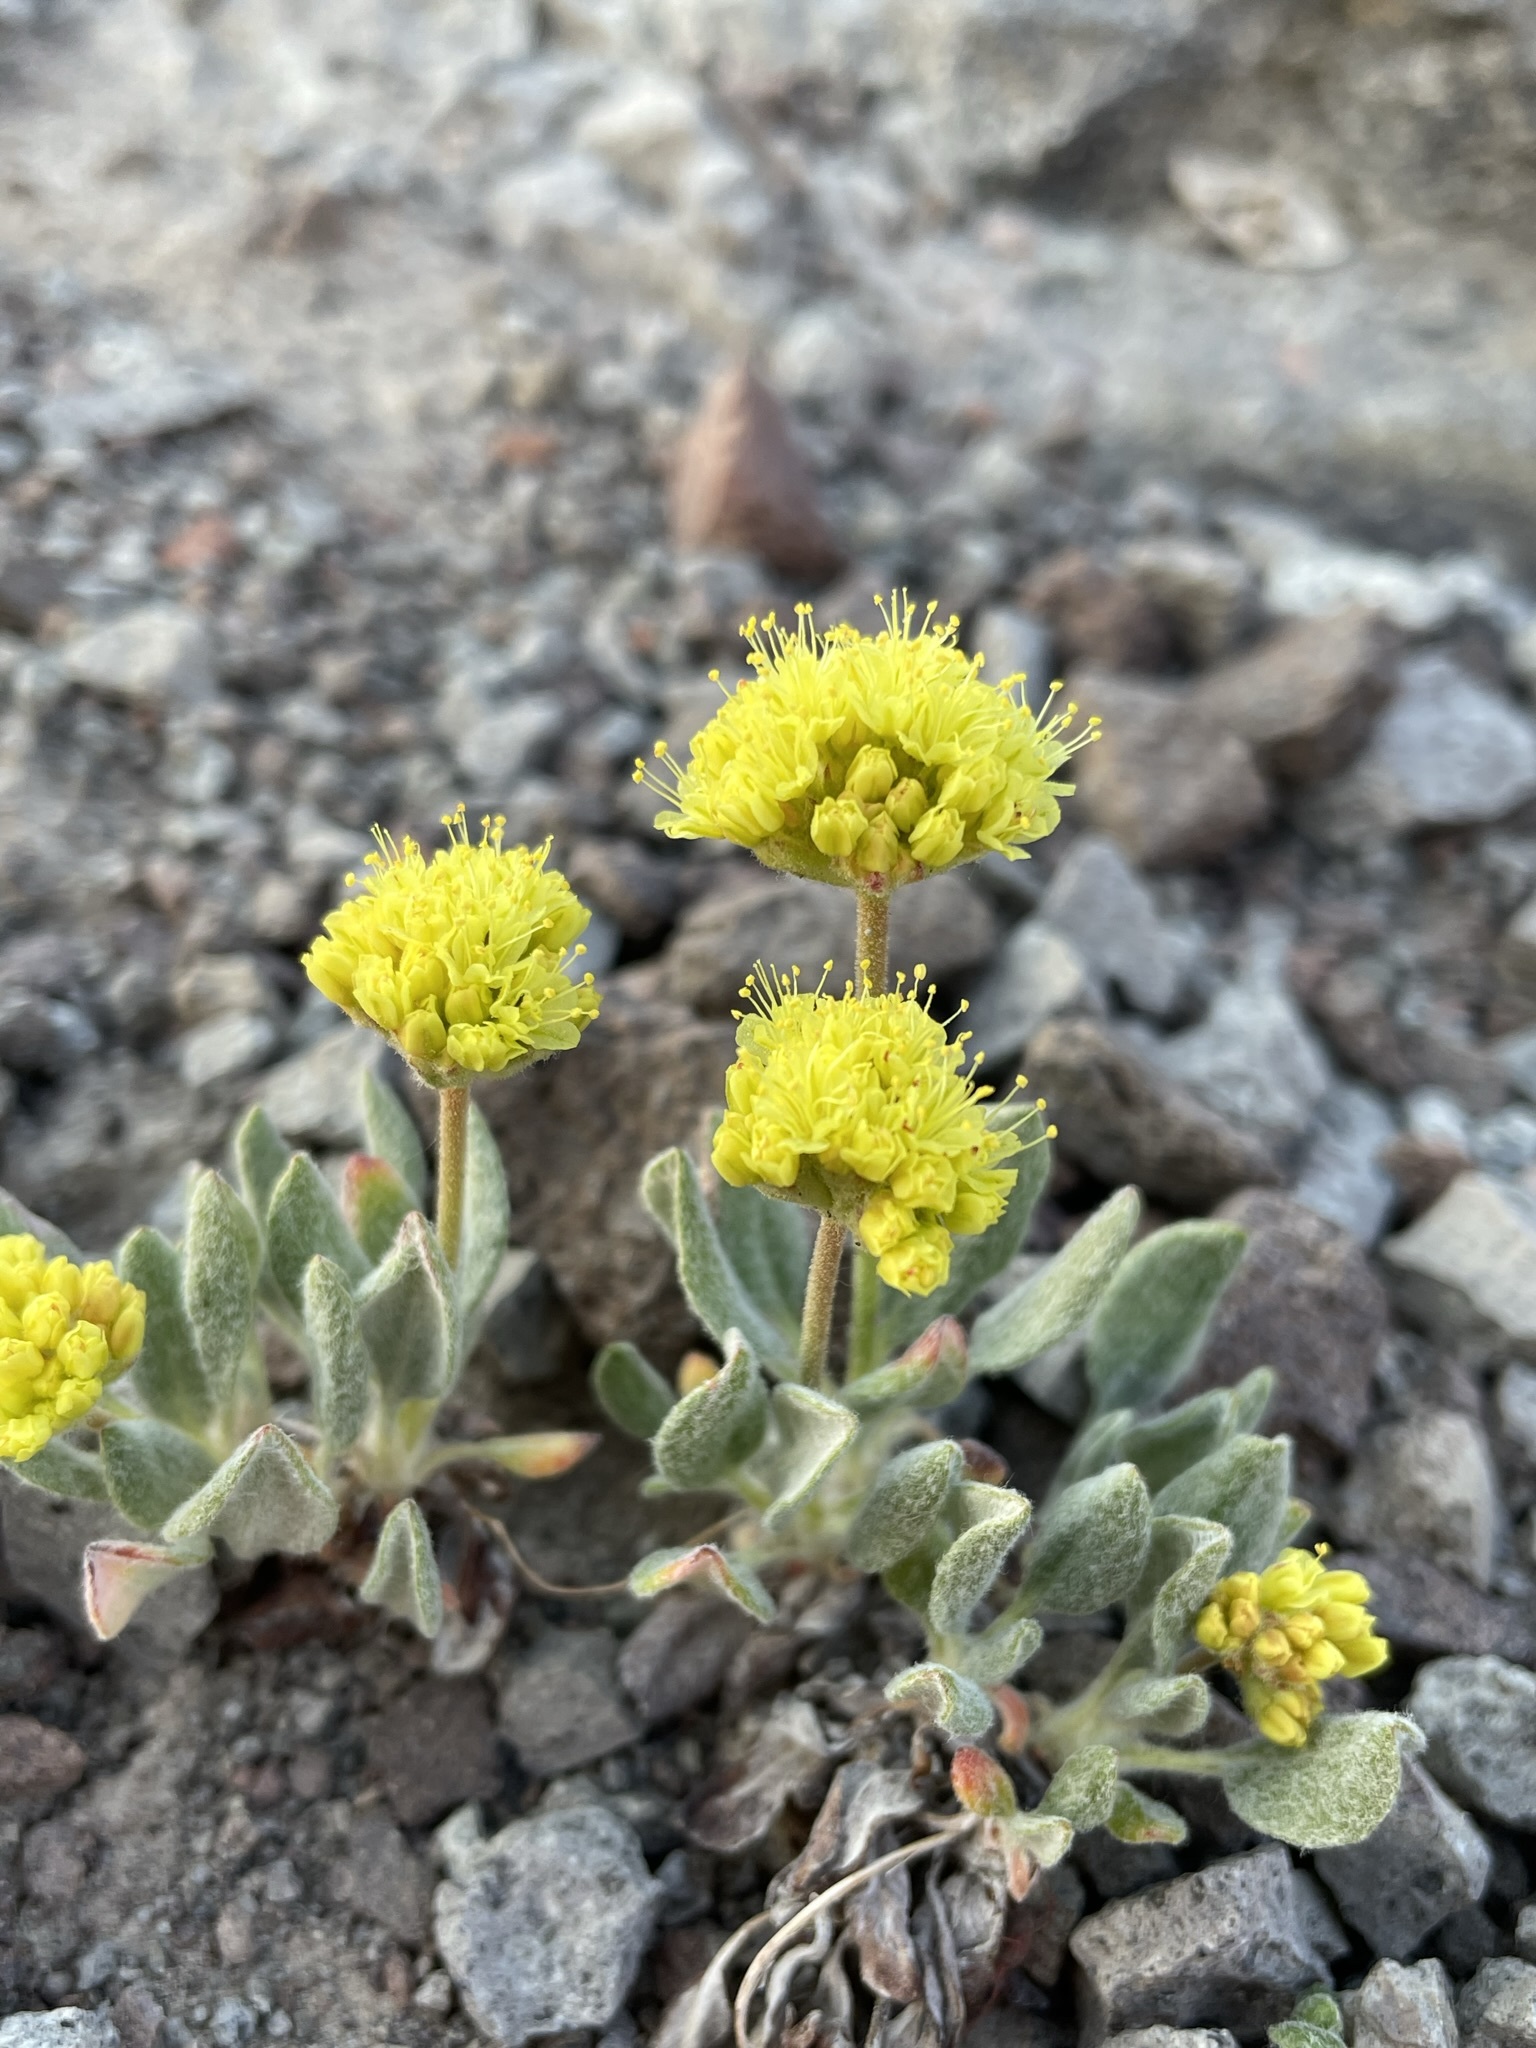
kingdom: Plantae
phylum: Tracheophyta
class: Magnoliopsida
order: Caryophyllales
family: Polygonaceae
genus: Eriogonum
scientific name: Eriogonum rosense
